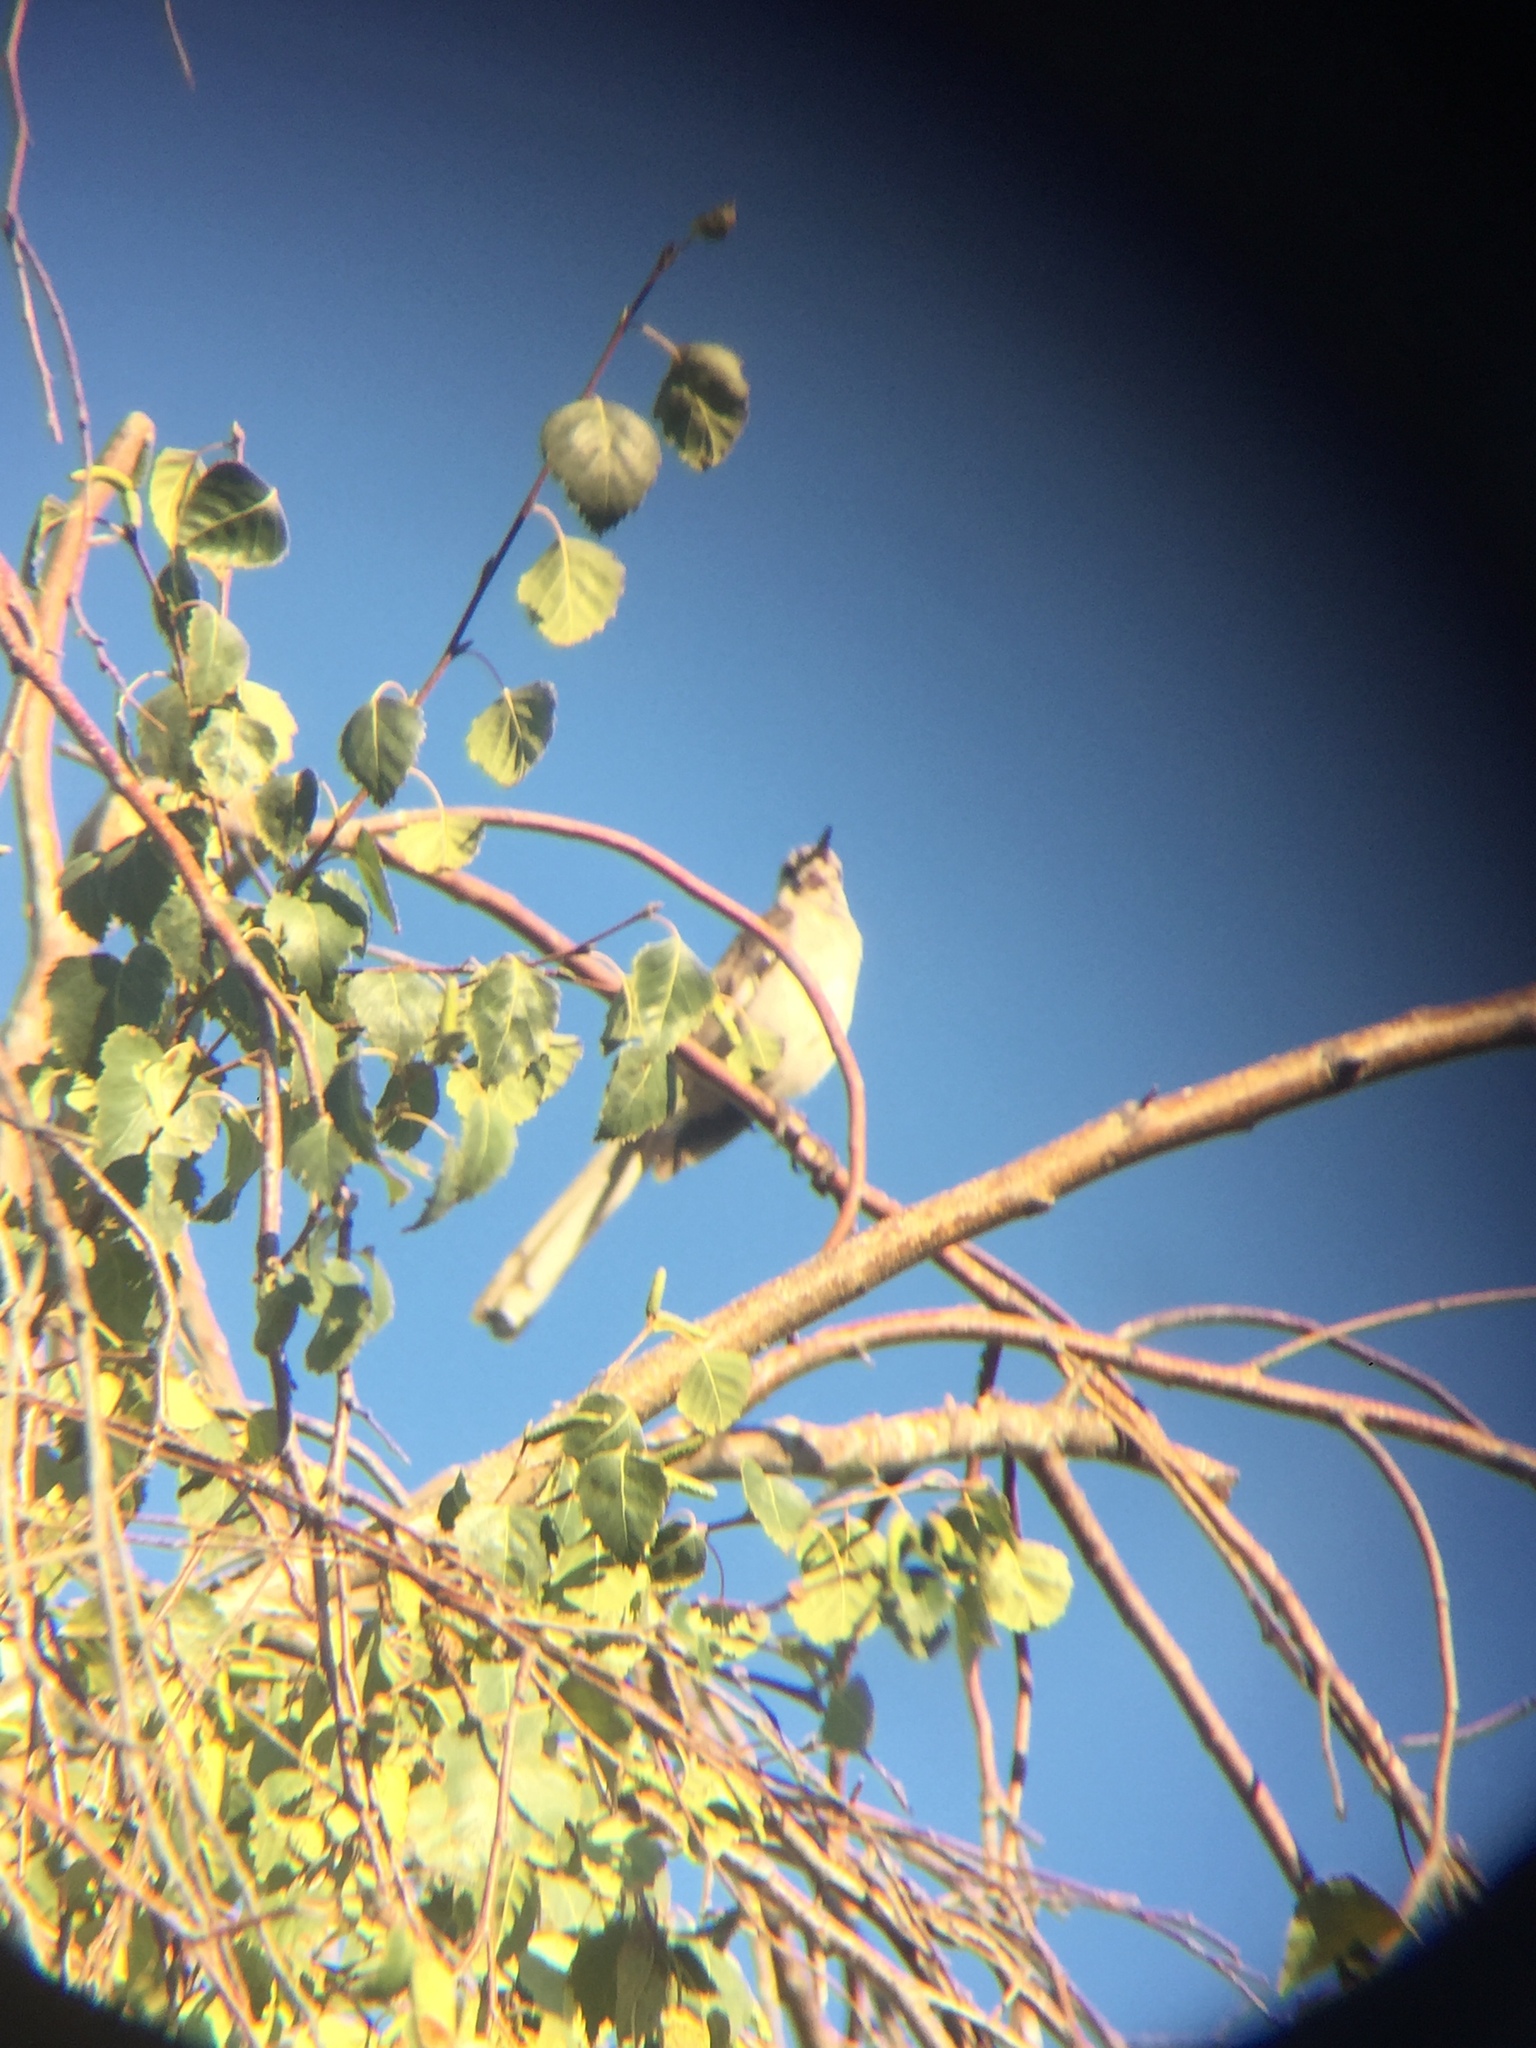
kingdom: Animalia
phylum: Chordata
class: Aves
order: Passeriformes
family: Mimidae
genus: Mimus
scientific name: Mimus polyglottos
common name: Northern mockingbird
